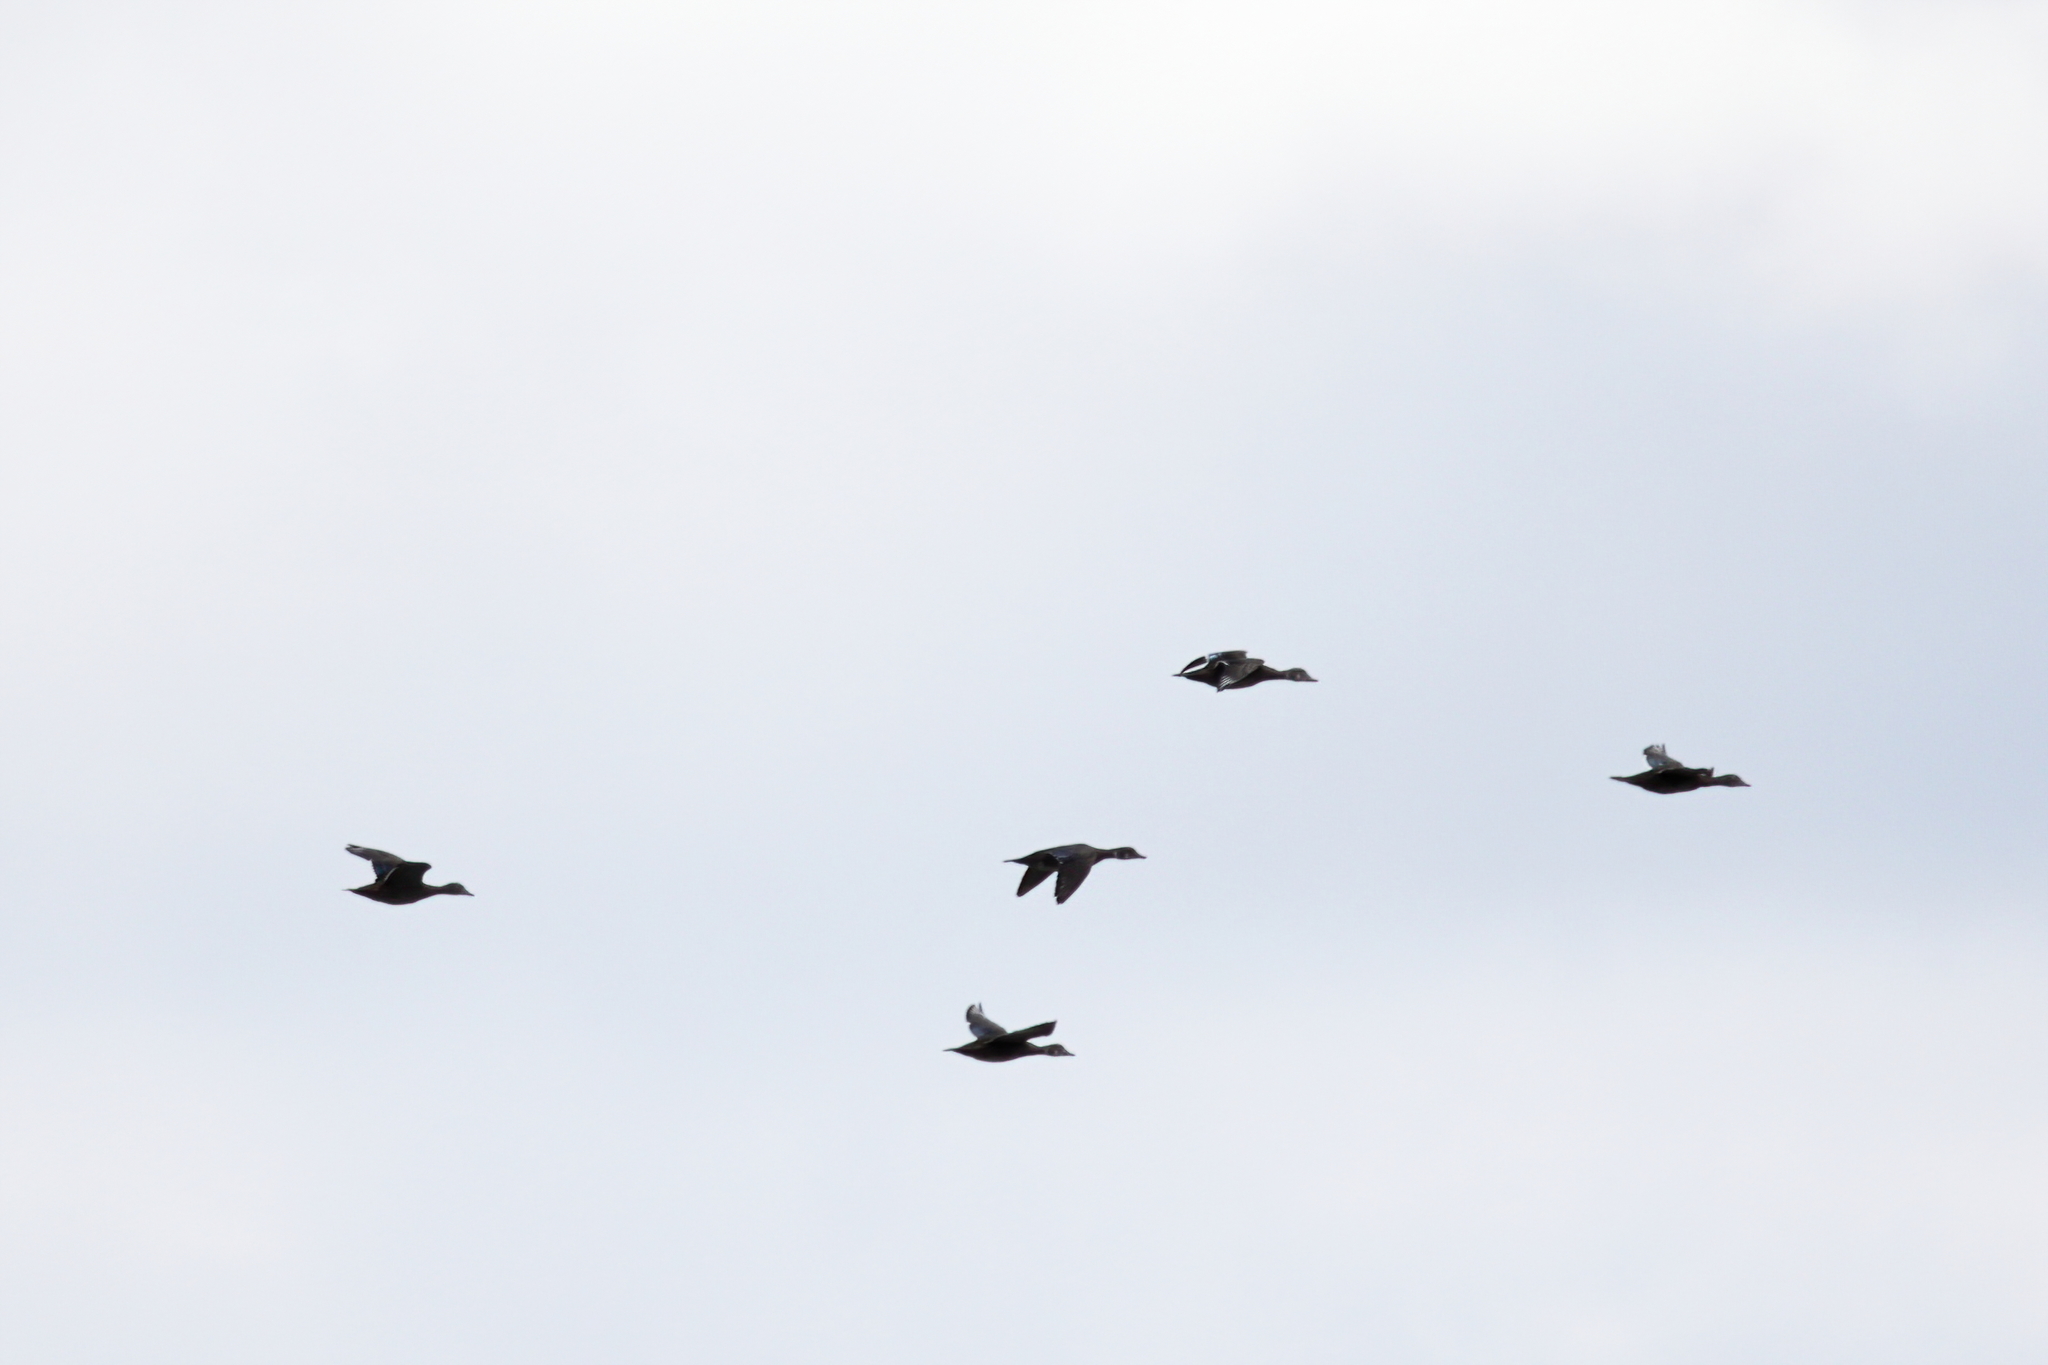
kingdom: Animalia
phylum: Chordata
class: Aves
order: Anseriformes
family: Anatidae
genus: Aix
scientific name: Aix sponsa
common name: Wood duck
